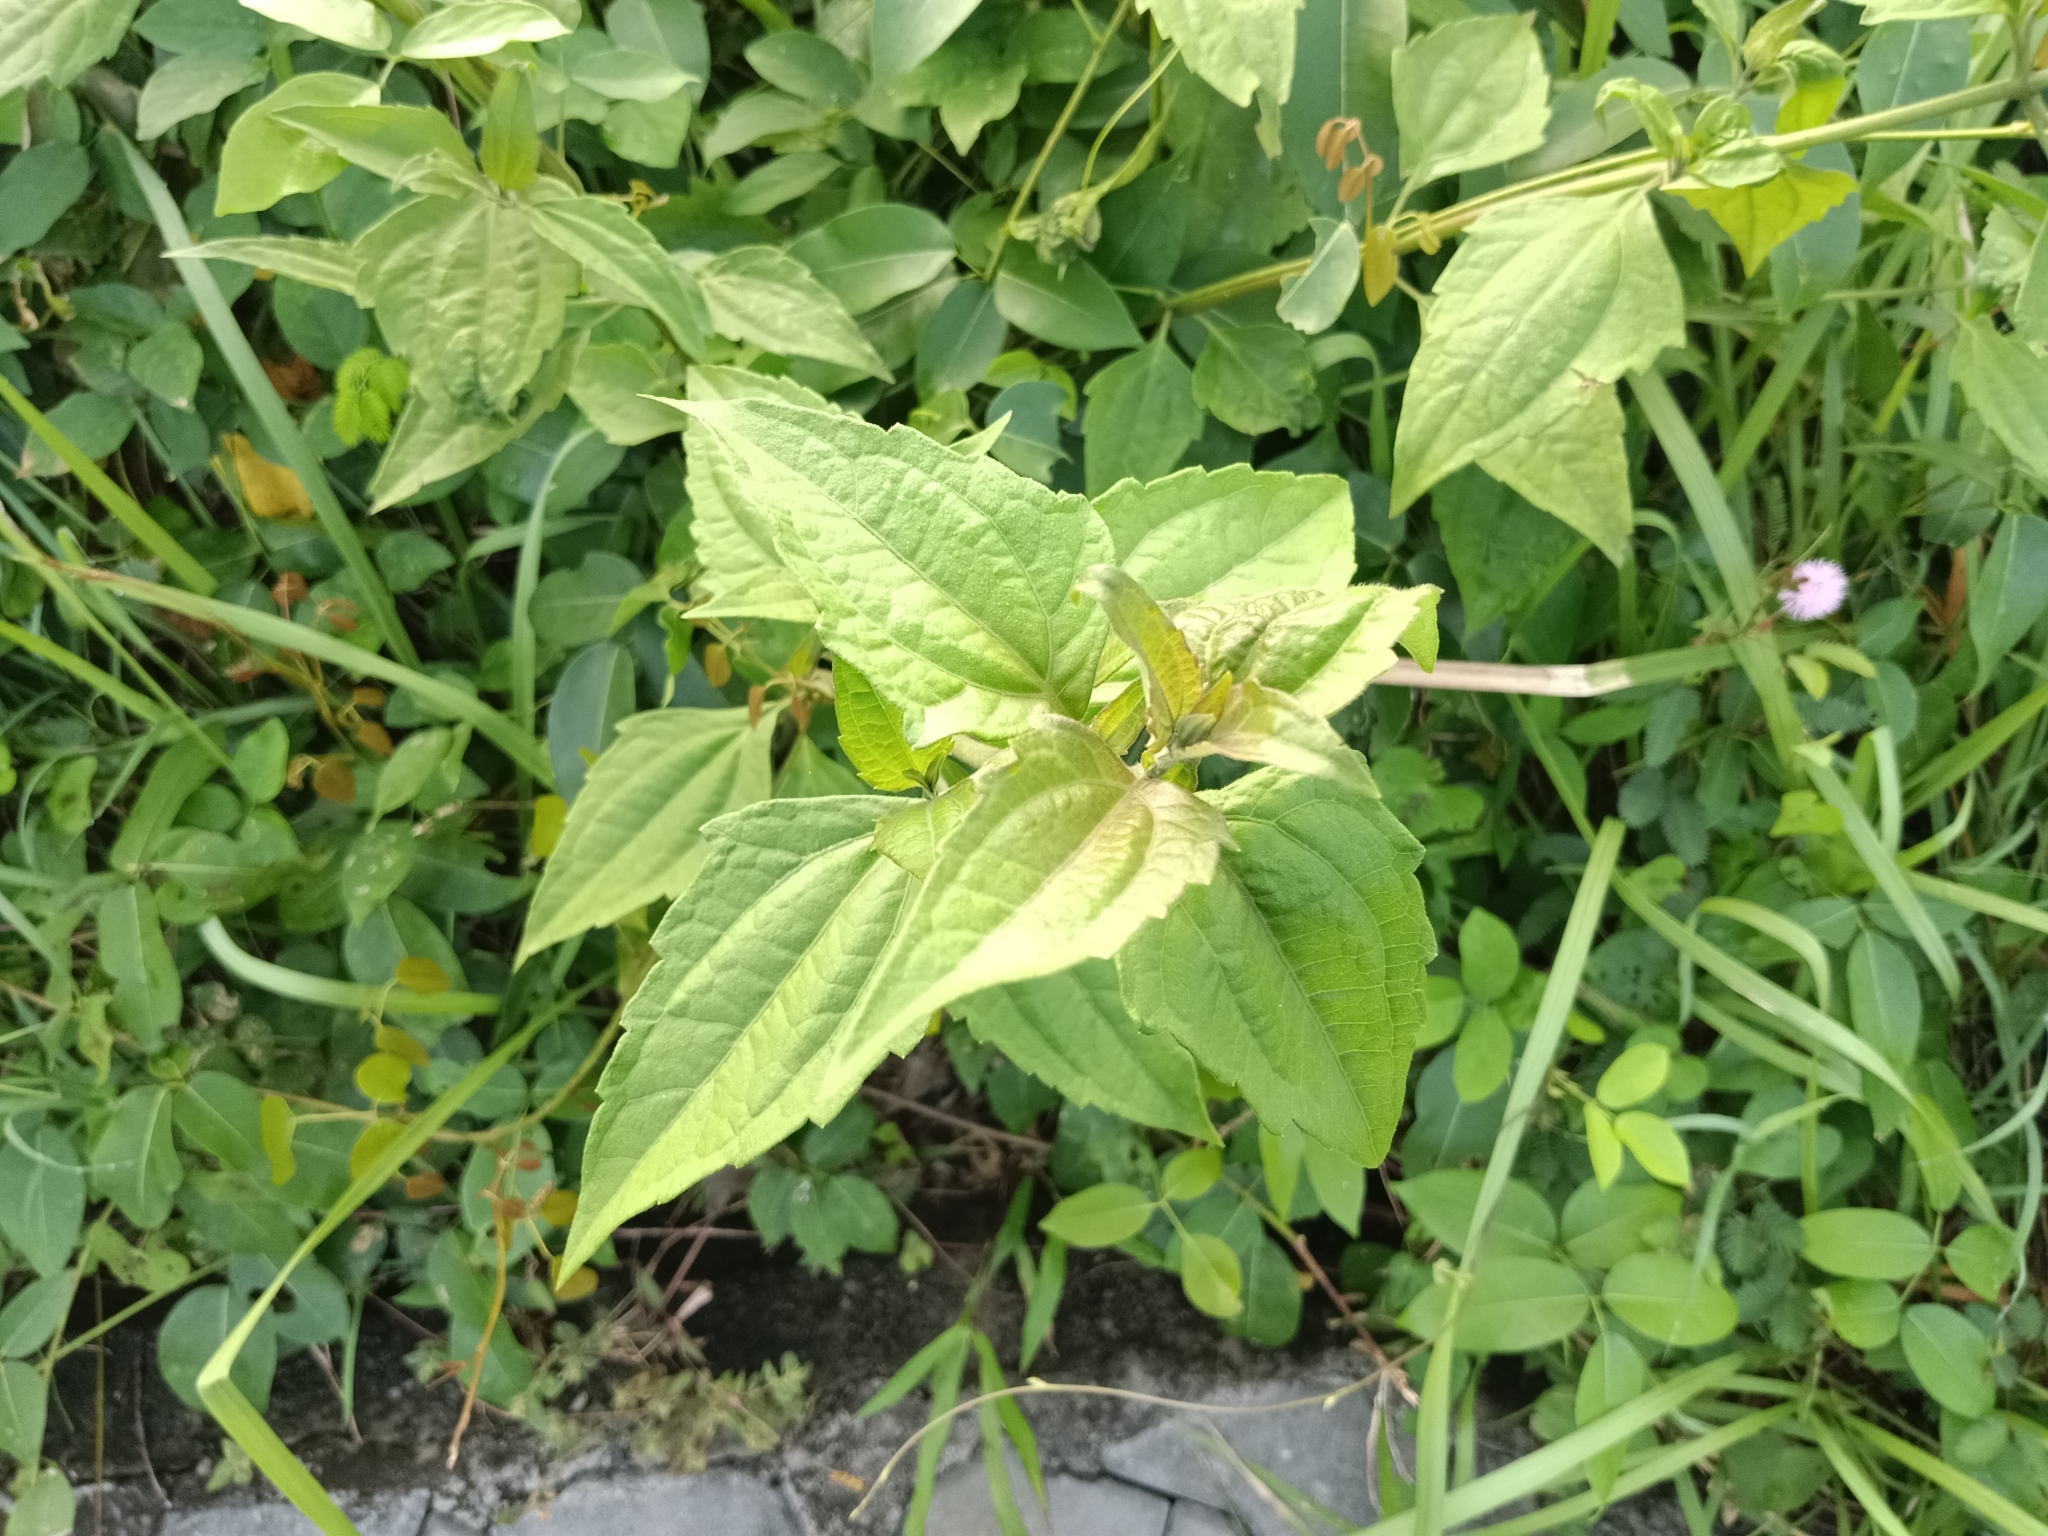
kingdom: Plantae
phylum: Tracheophyta
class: Magnoliopsida
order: Asterales
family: Asteraceae
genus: Chromolaena
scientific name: Chromolaena odorata
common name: Siamweed
